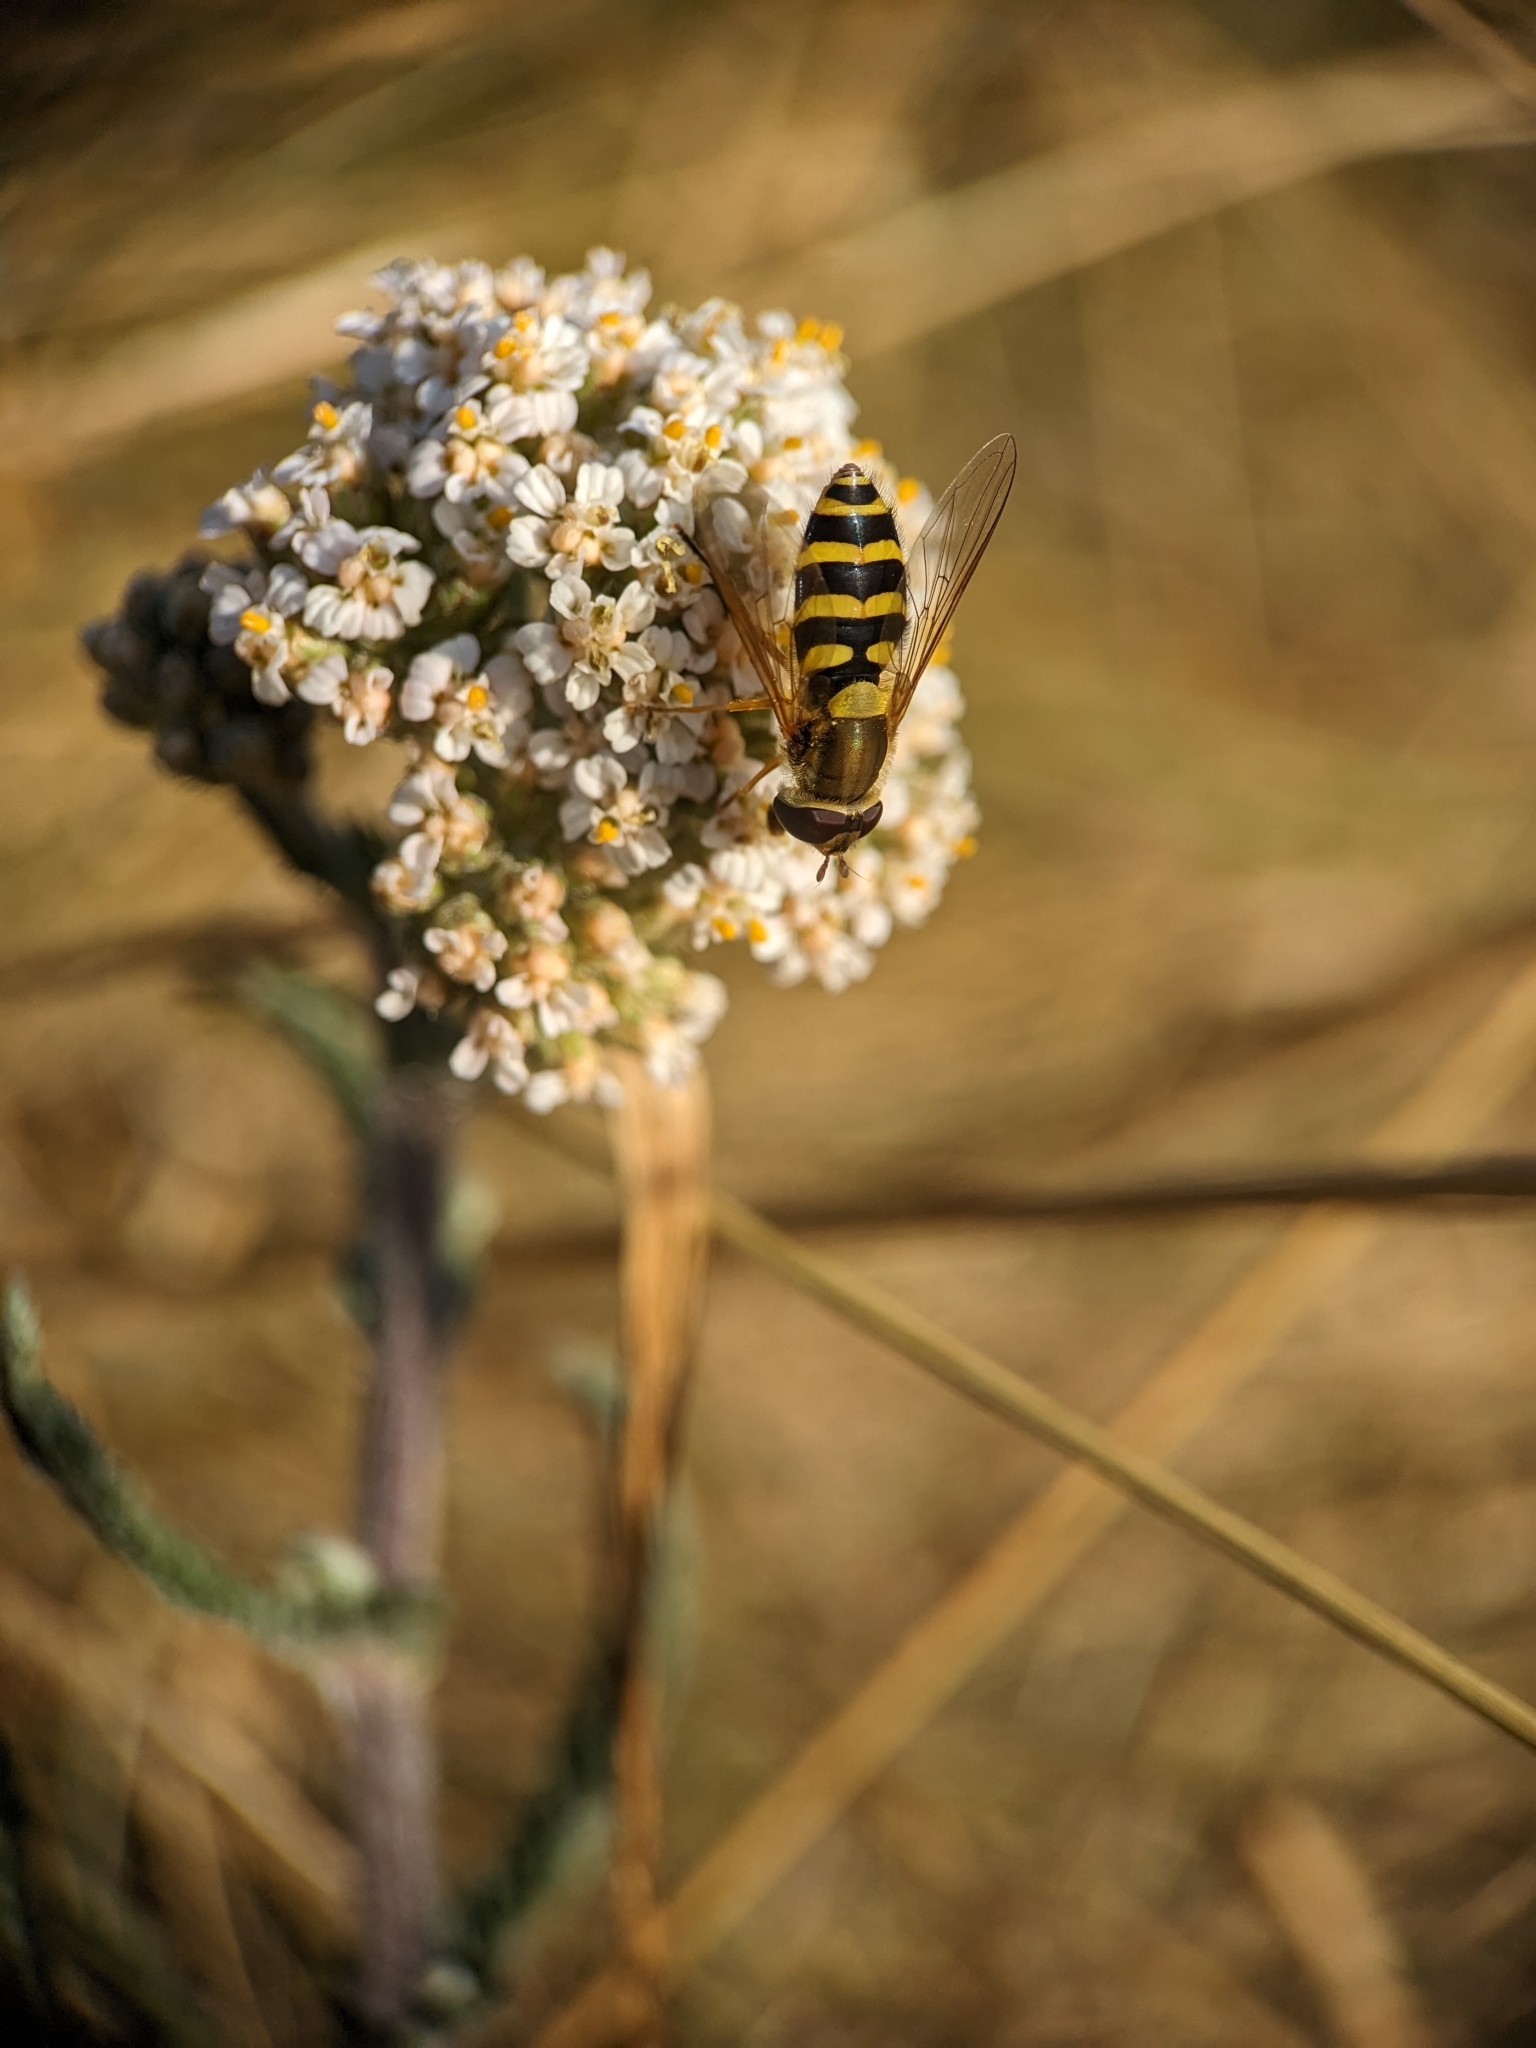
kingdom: Animalia
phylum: Arthropoda
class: Insecta
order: Diptera
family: Syrphidae
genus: Syrphus
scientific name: Syrphus ribesii
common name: Common flower fly
